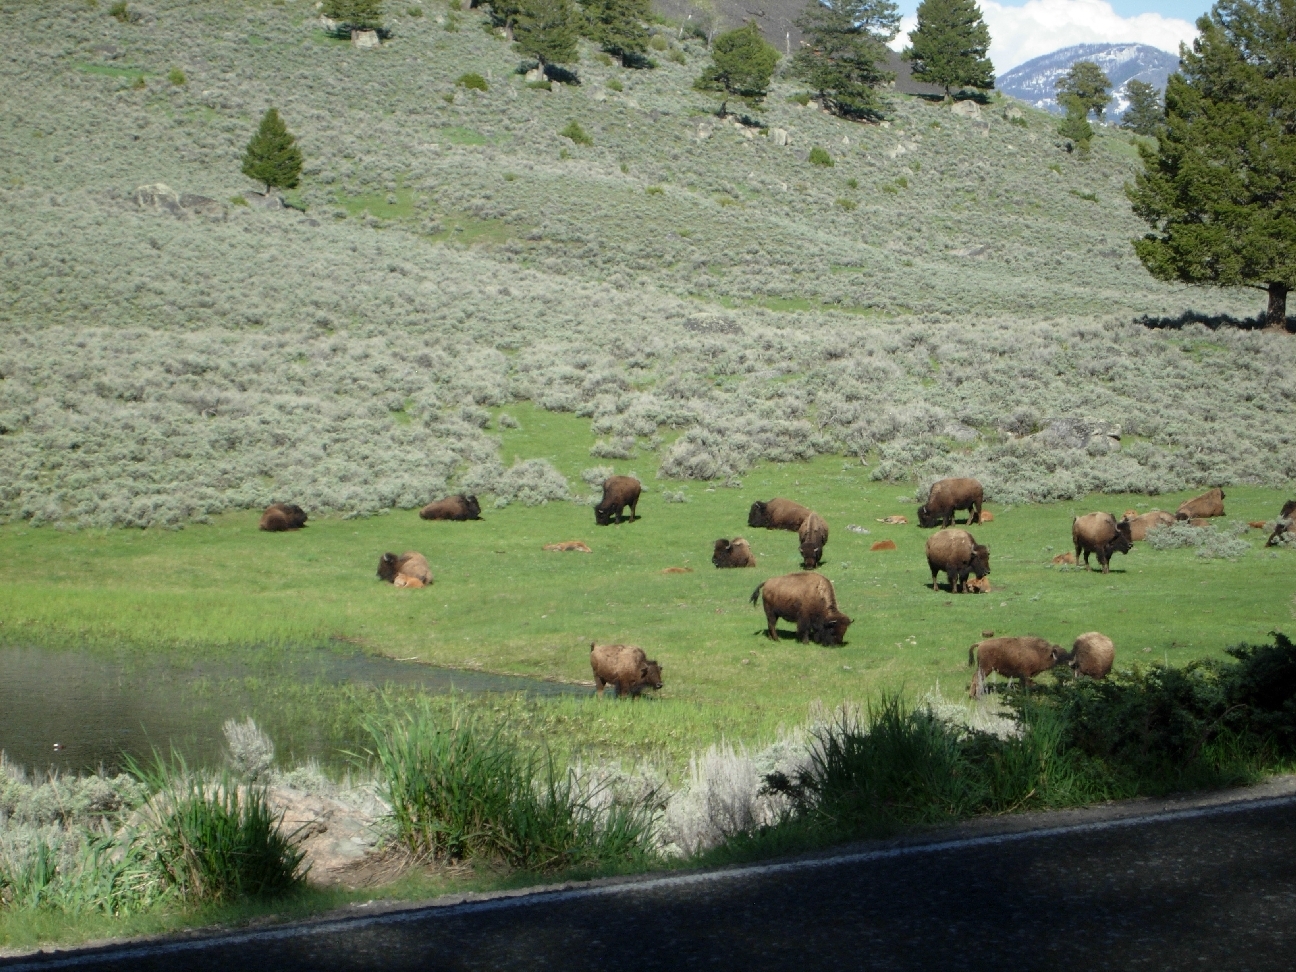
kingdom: Animalia
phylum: Chordata
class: Mammalia
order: Artiodactyla
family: Bovidae
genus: Bison
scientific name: Bison bison
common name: American bison
